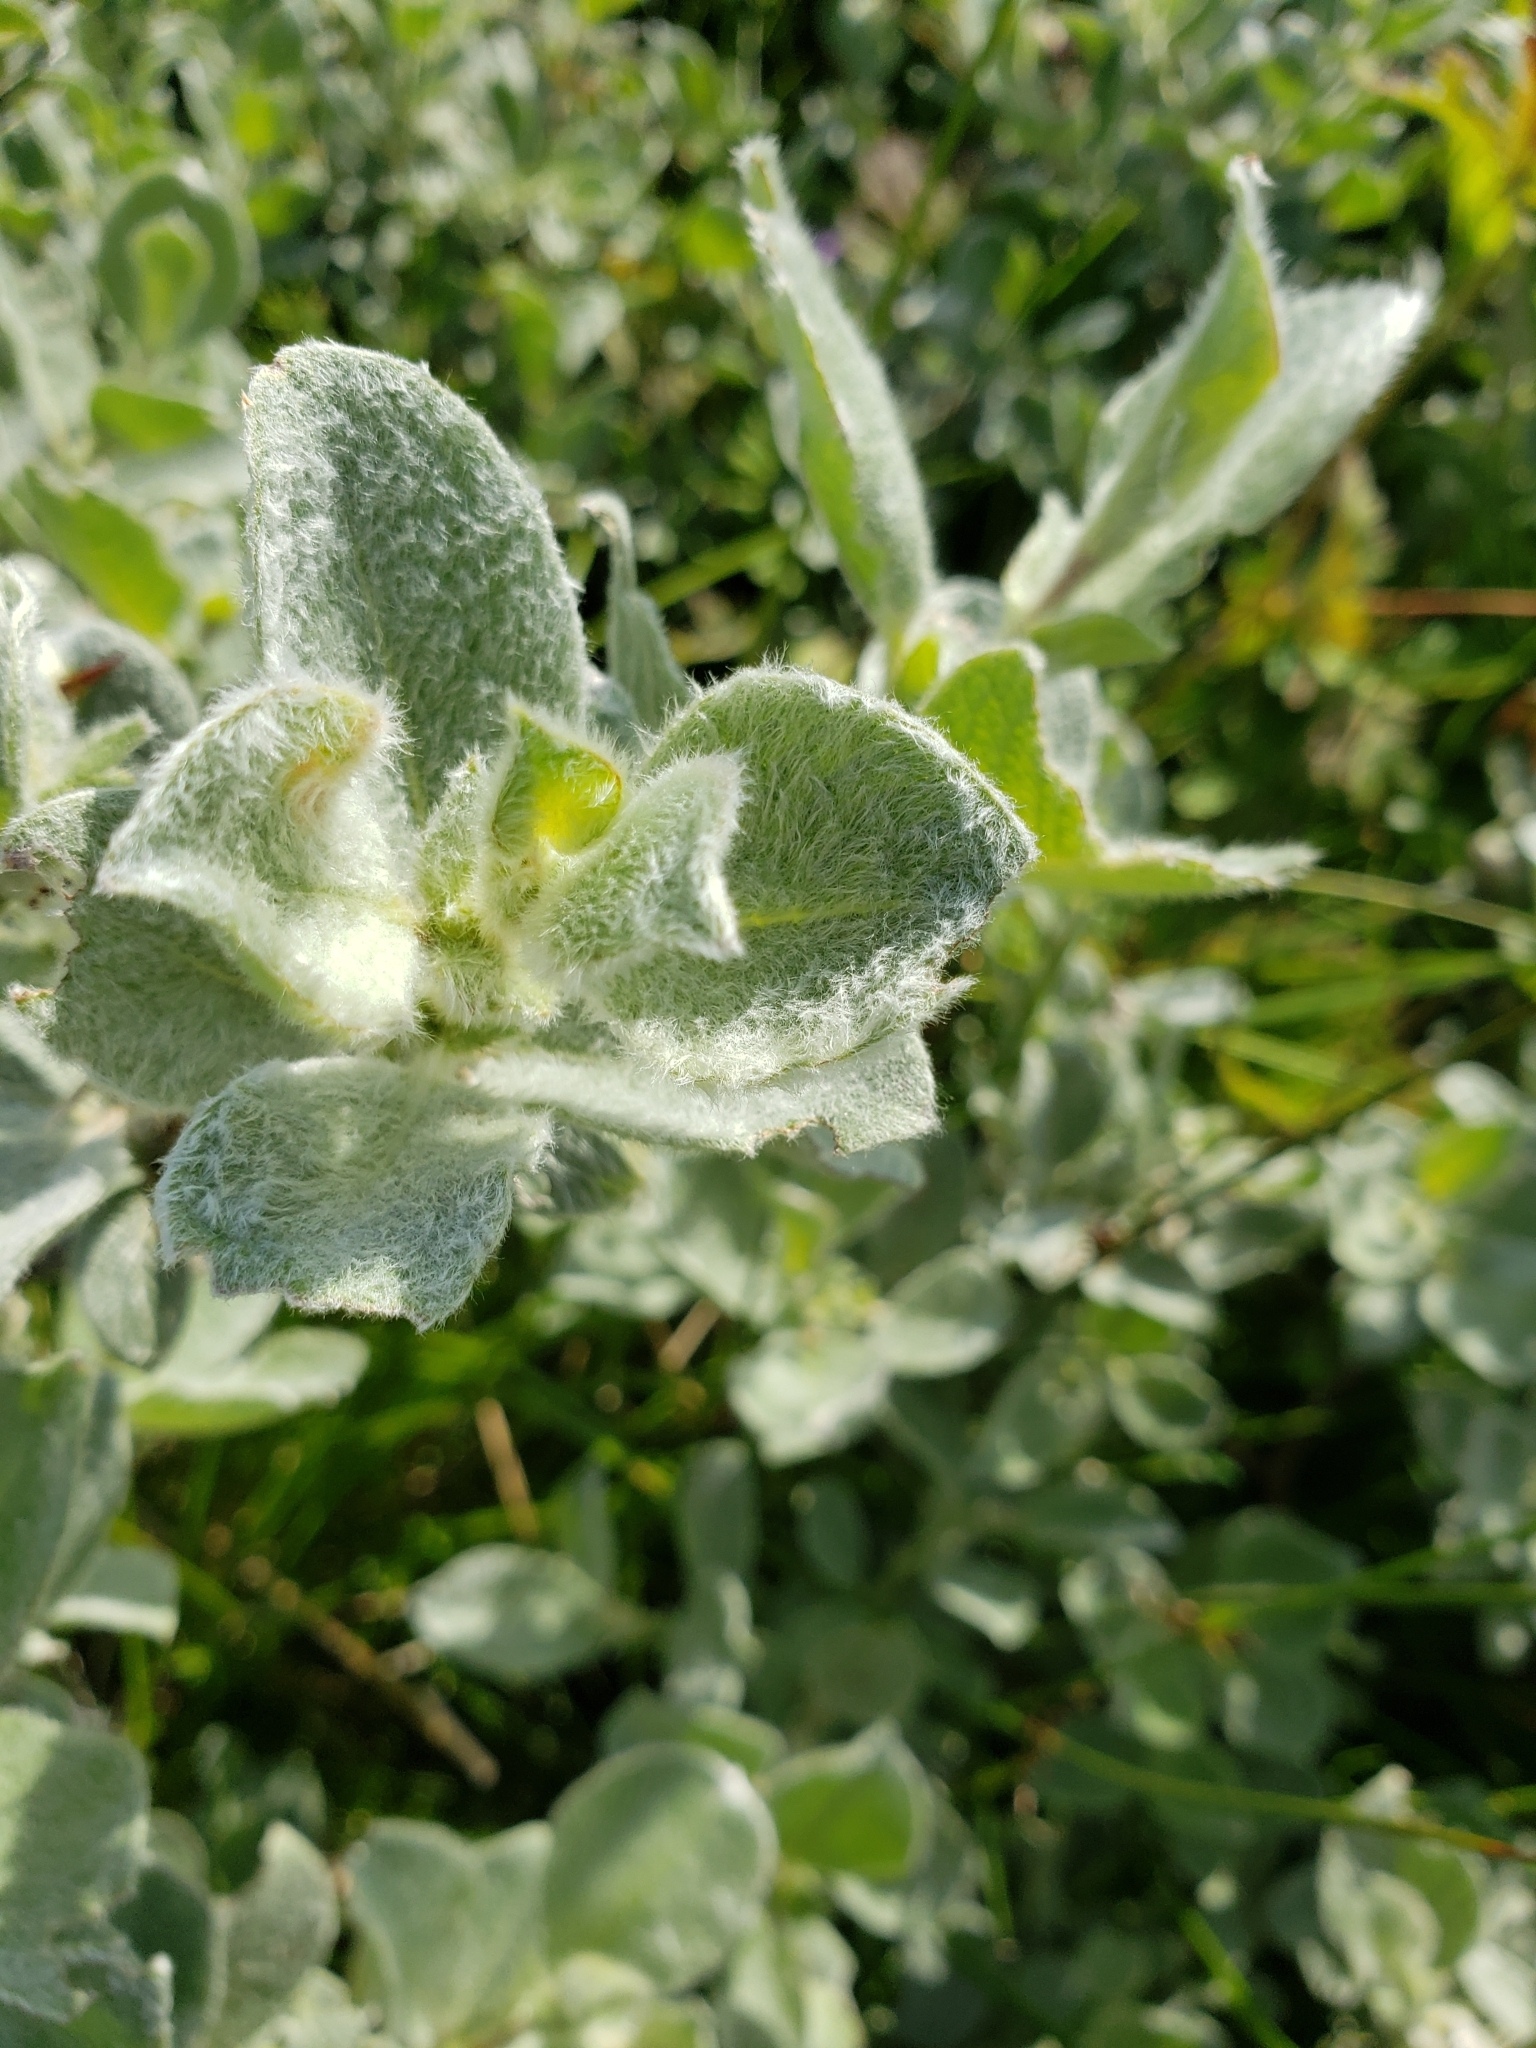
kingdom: Plantae
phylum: Tracheophyta
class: Magnoliopsida
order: Malpighiales
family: Salicaceae
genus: Salix
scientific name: Salix lanata
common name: Woolly willow
